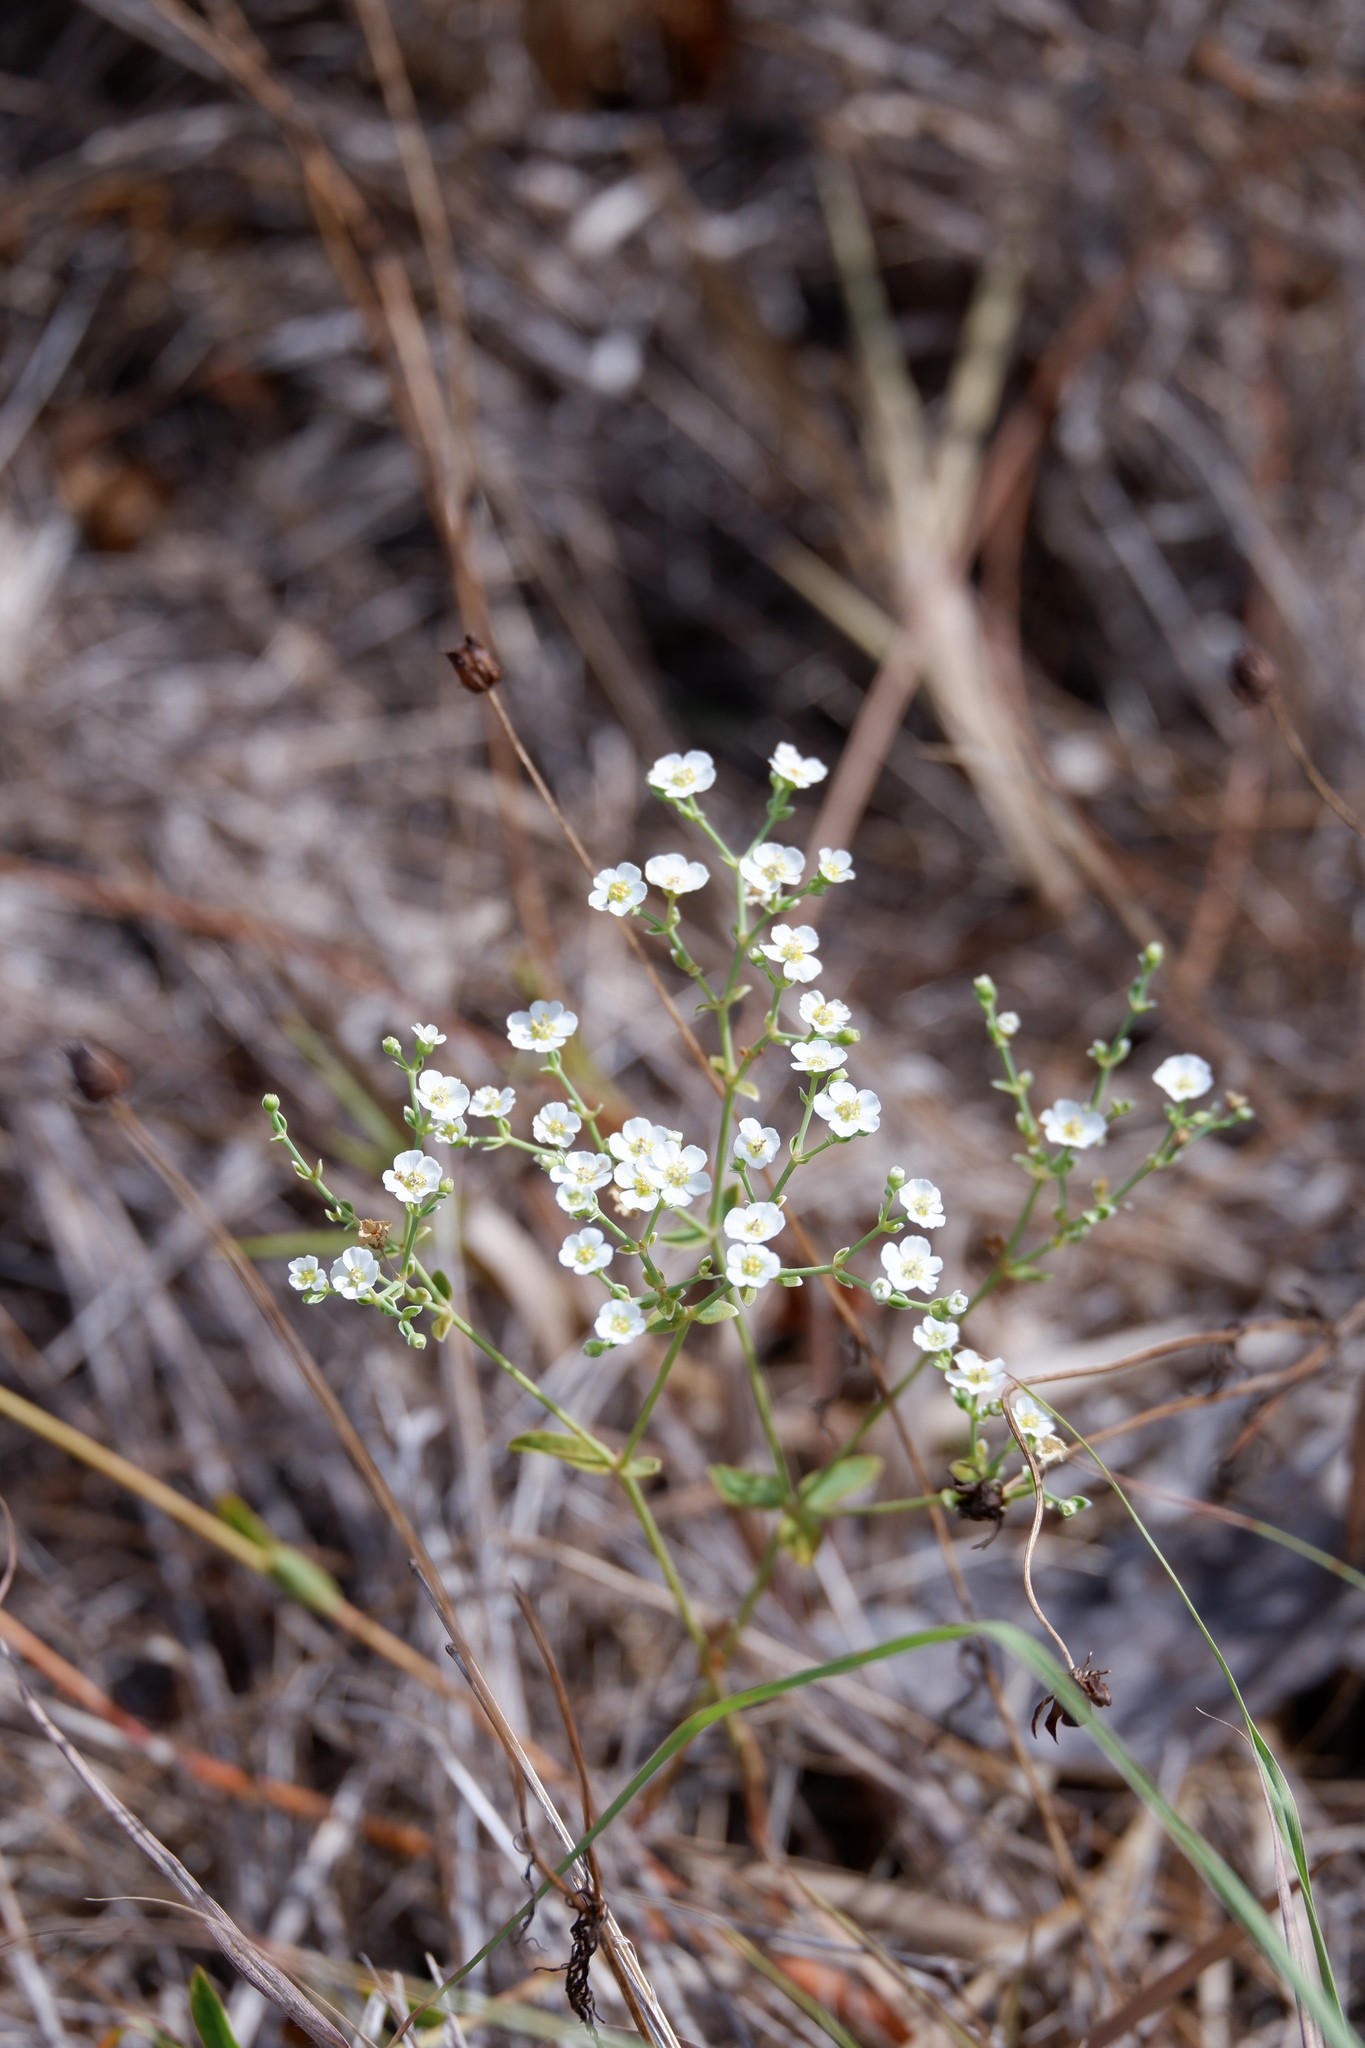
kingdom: Plantae
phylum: Tracheophyta
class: Magnoliopsida
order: Malpighiales
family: Euphorbiaceae
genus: Euphorbia
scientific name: Euphorbia corollata
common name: Flowering spurge
